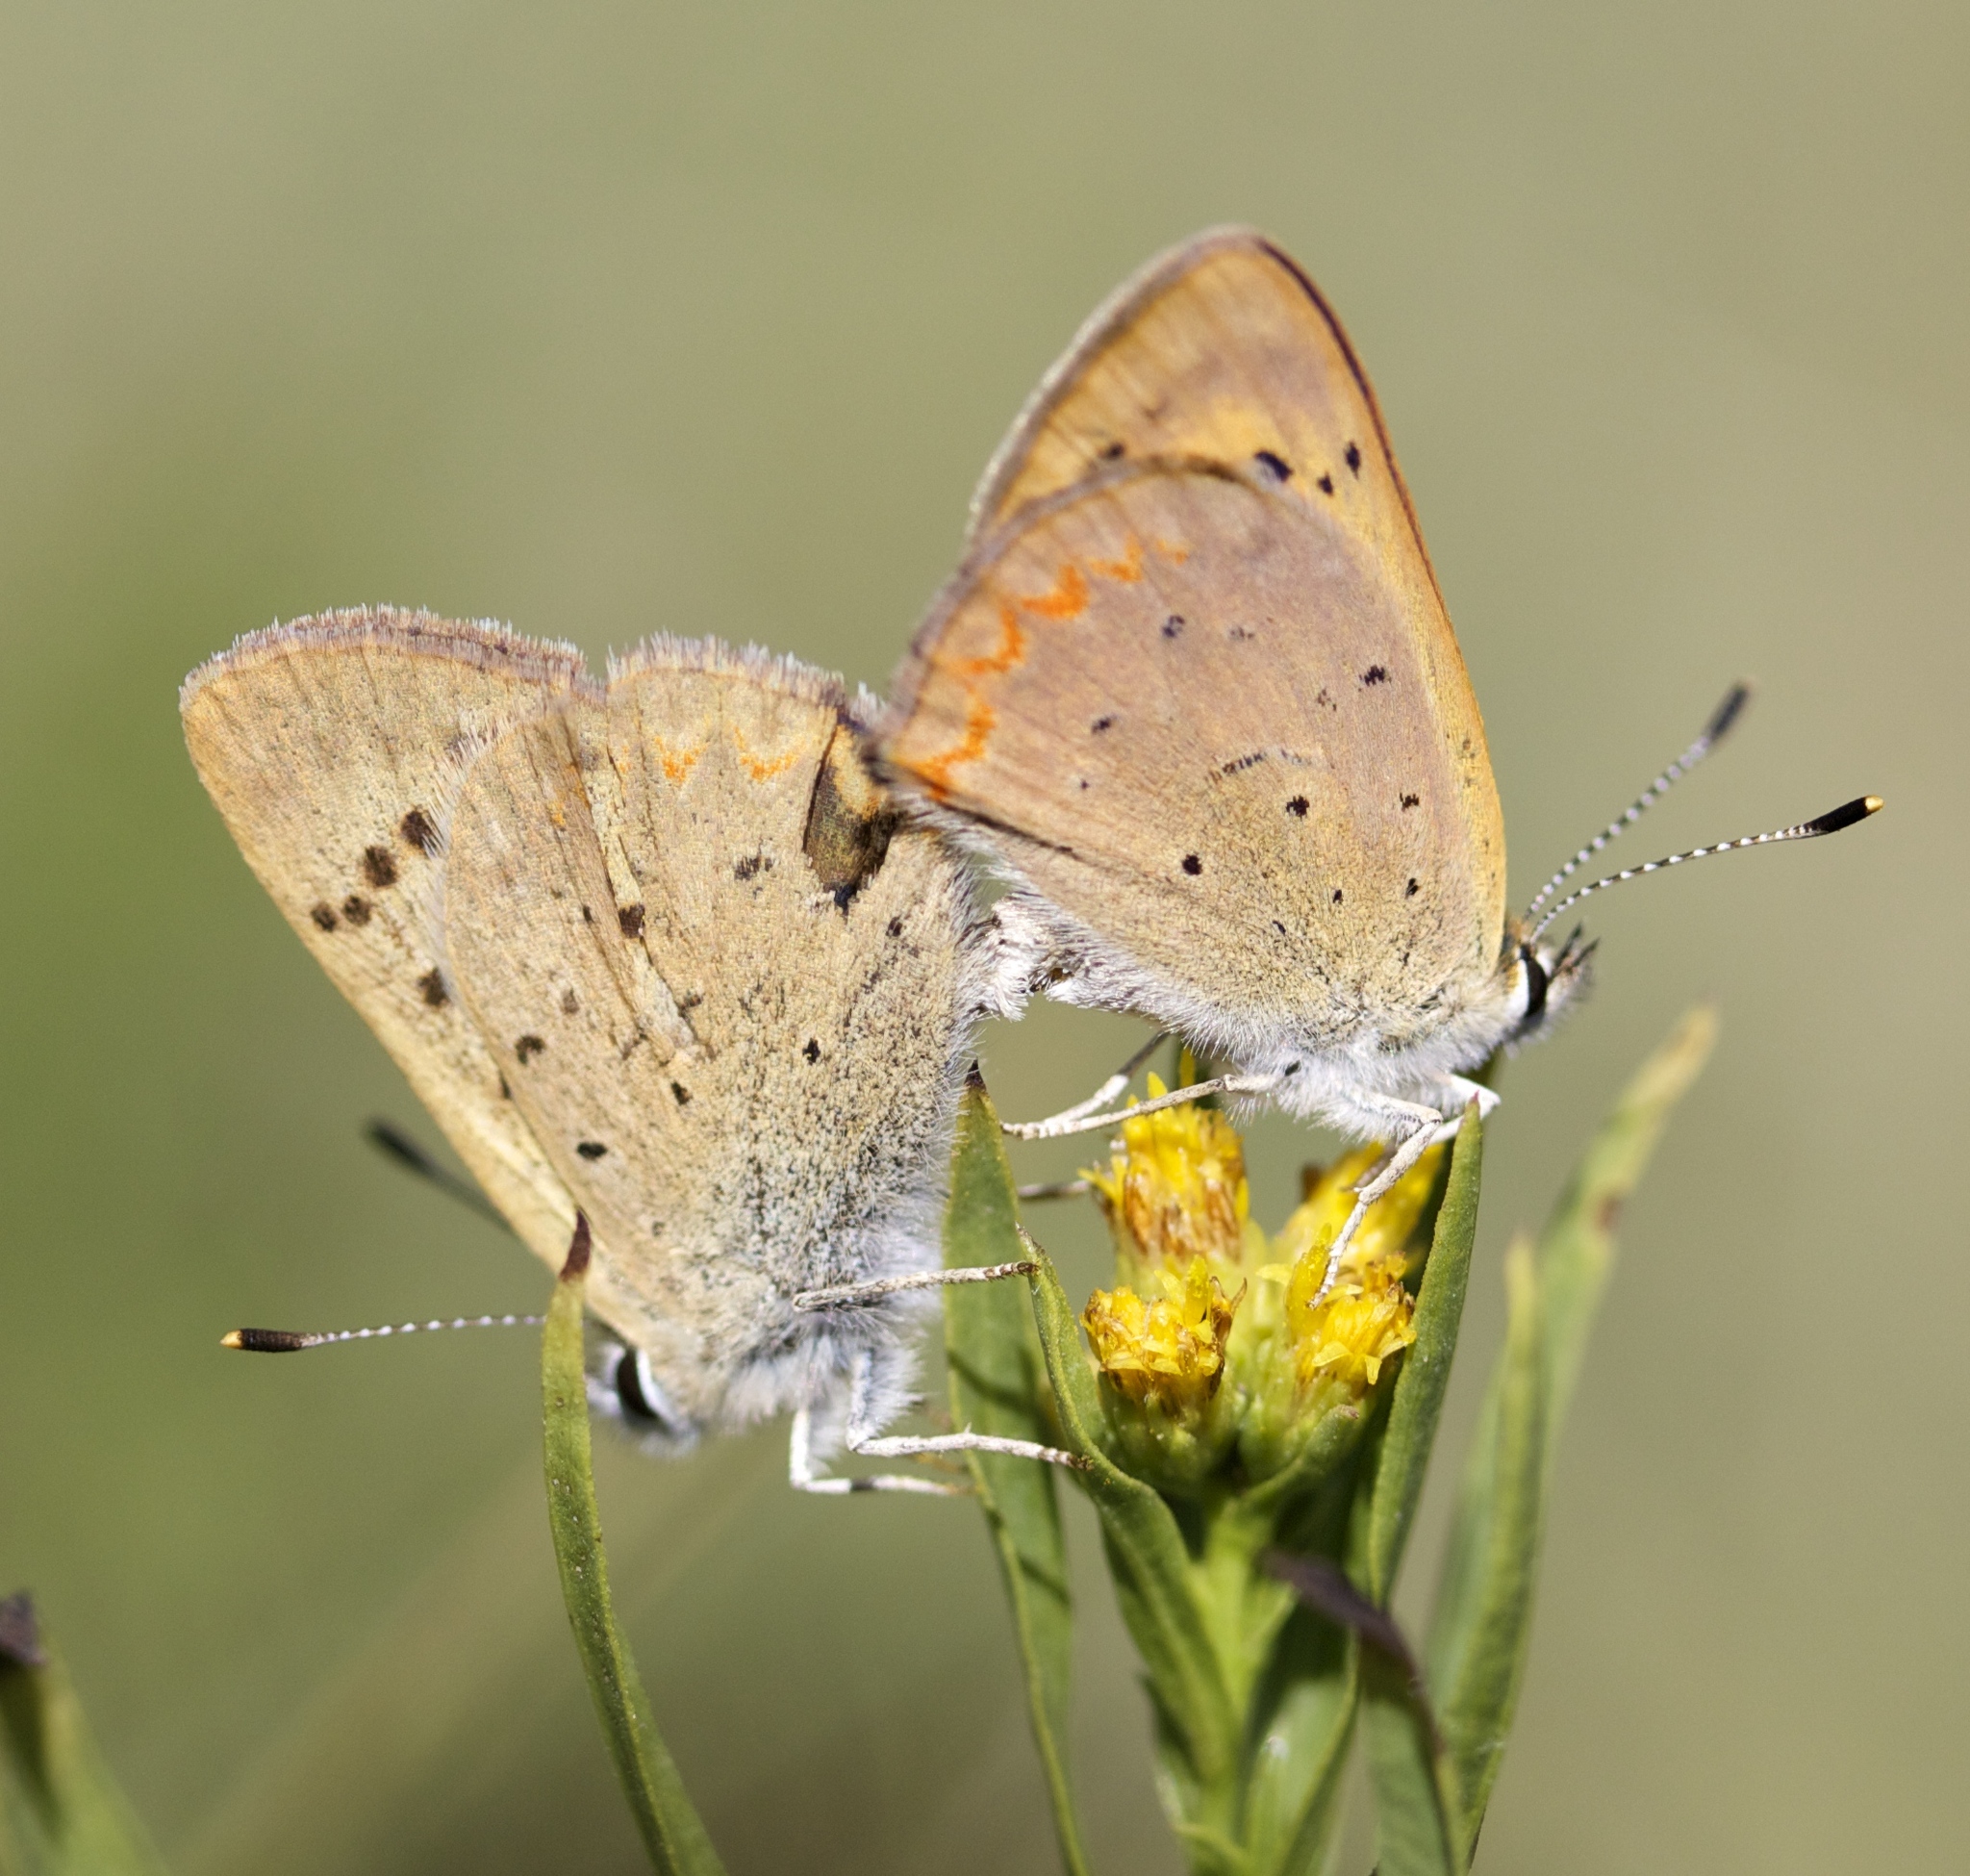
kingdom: Animalia
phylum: Arthropoda
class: Insecta
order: Lepidoptera
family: Lycaenidae
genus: Tharsalea
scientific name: Tharsalea helloides
